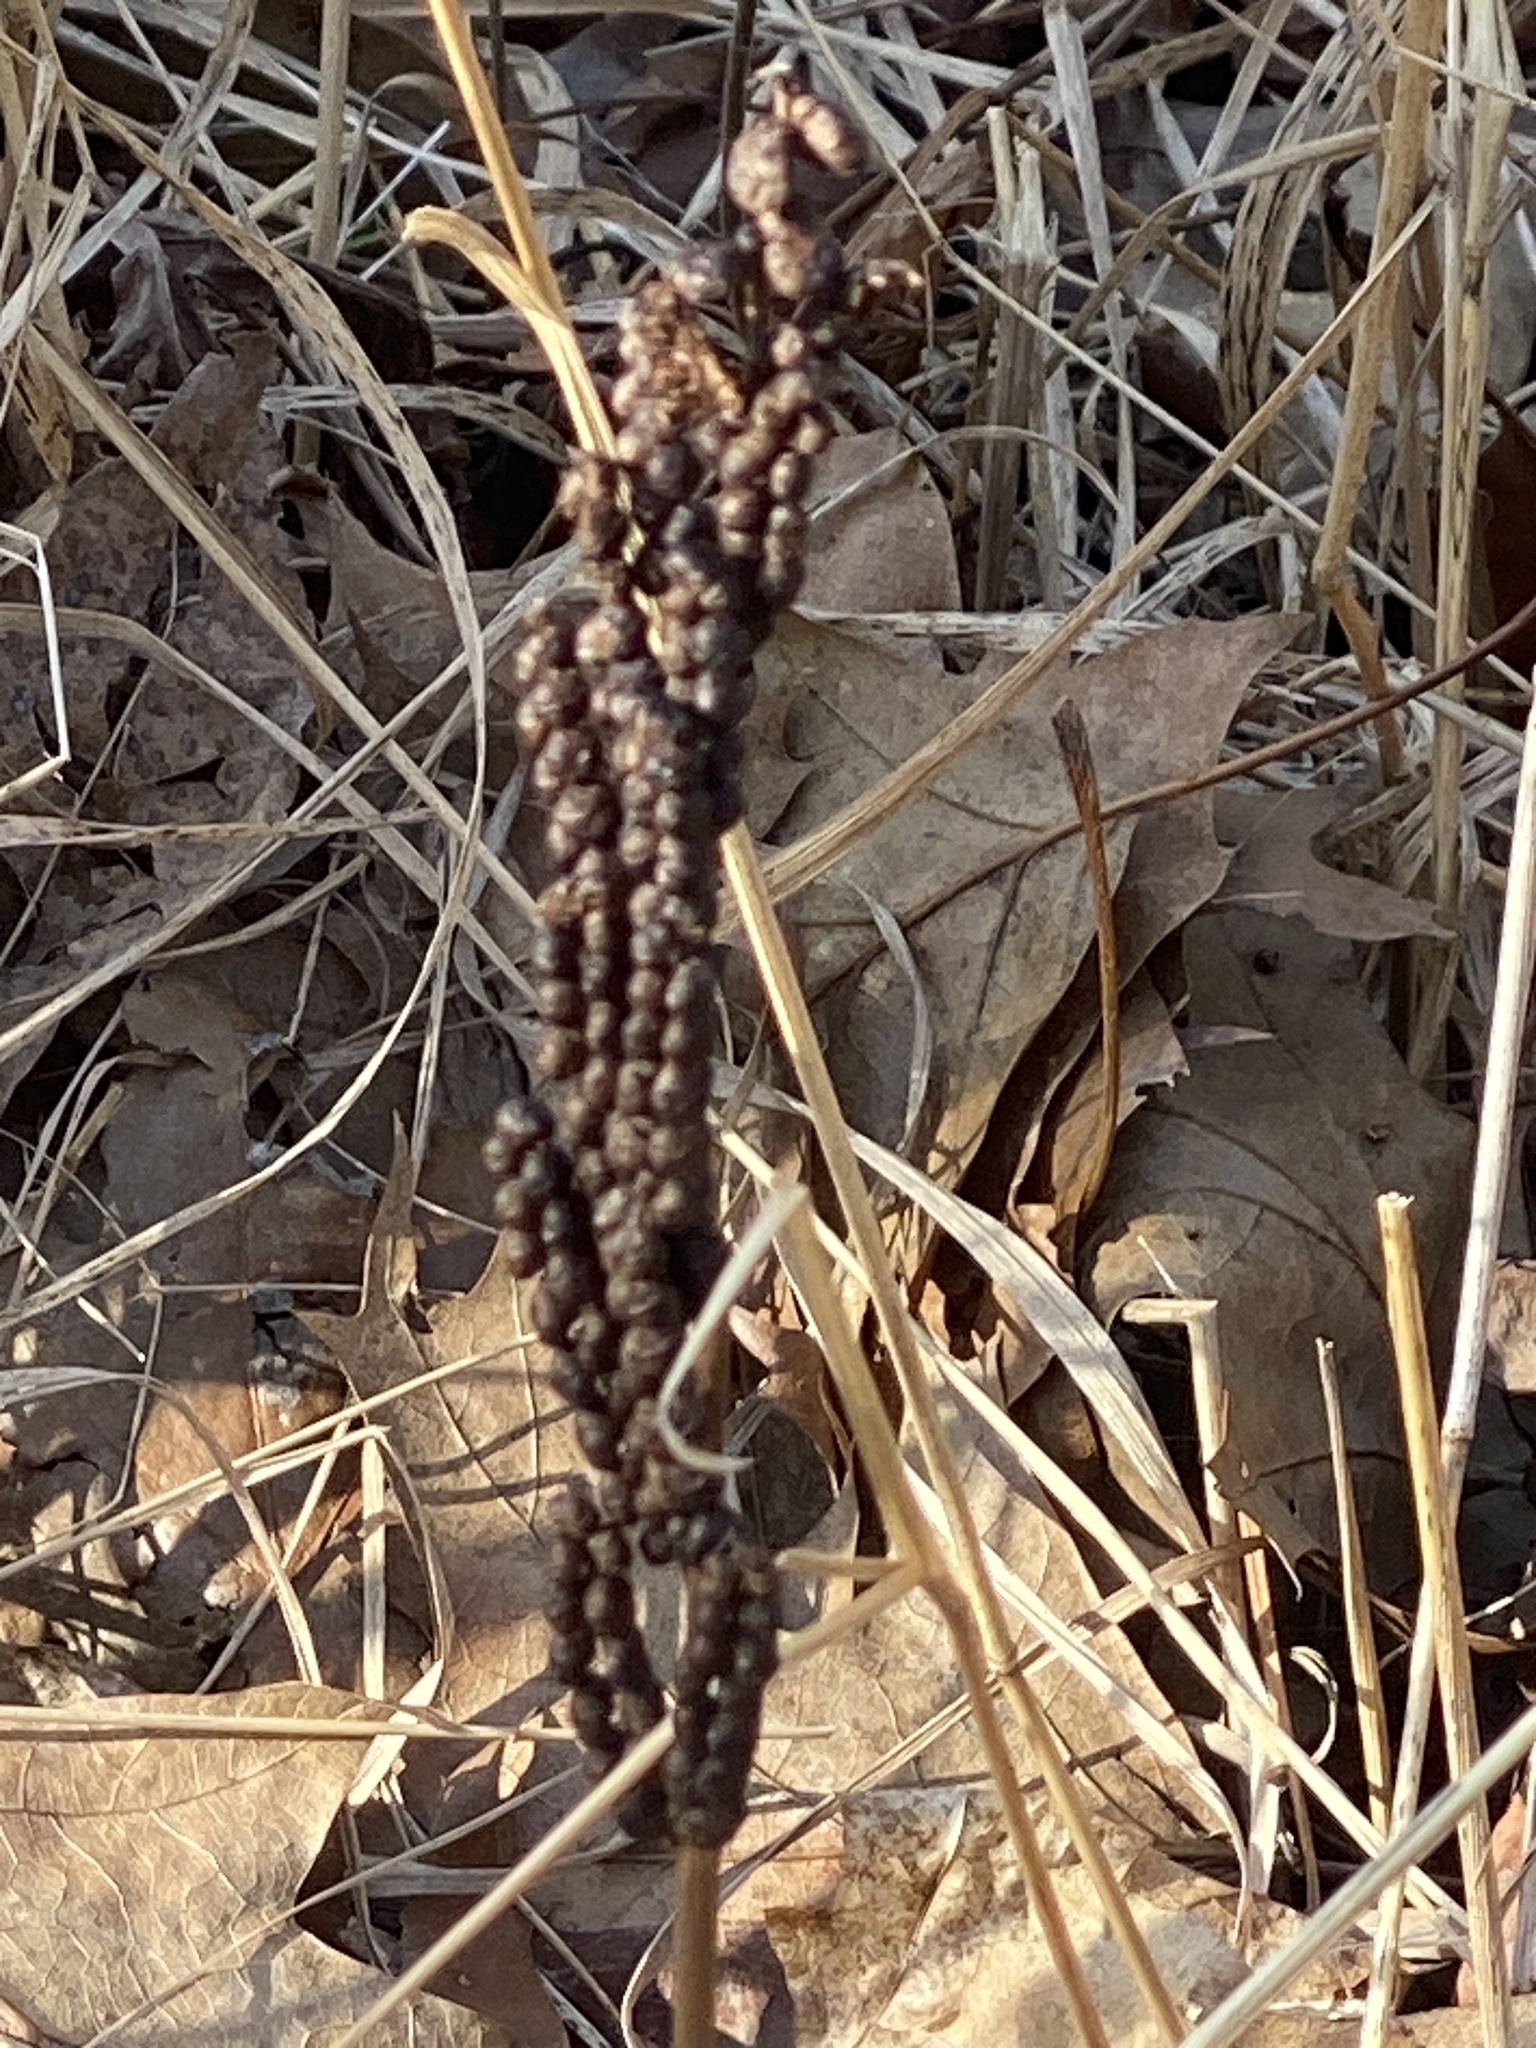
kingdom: Plantae
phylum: Tracheophyta
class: Polypodiopsida
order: Polypodiales
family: Onocleaceae
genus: Onoclea
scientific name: Onoclea sensibilis
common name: Sensitive fern
